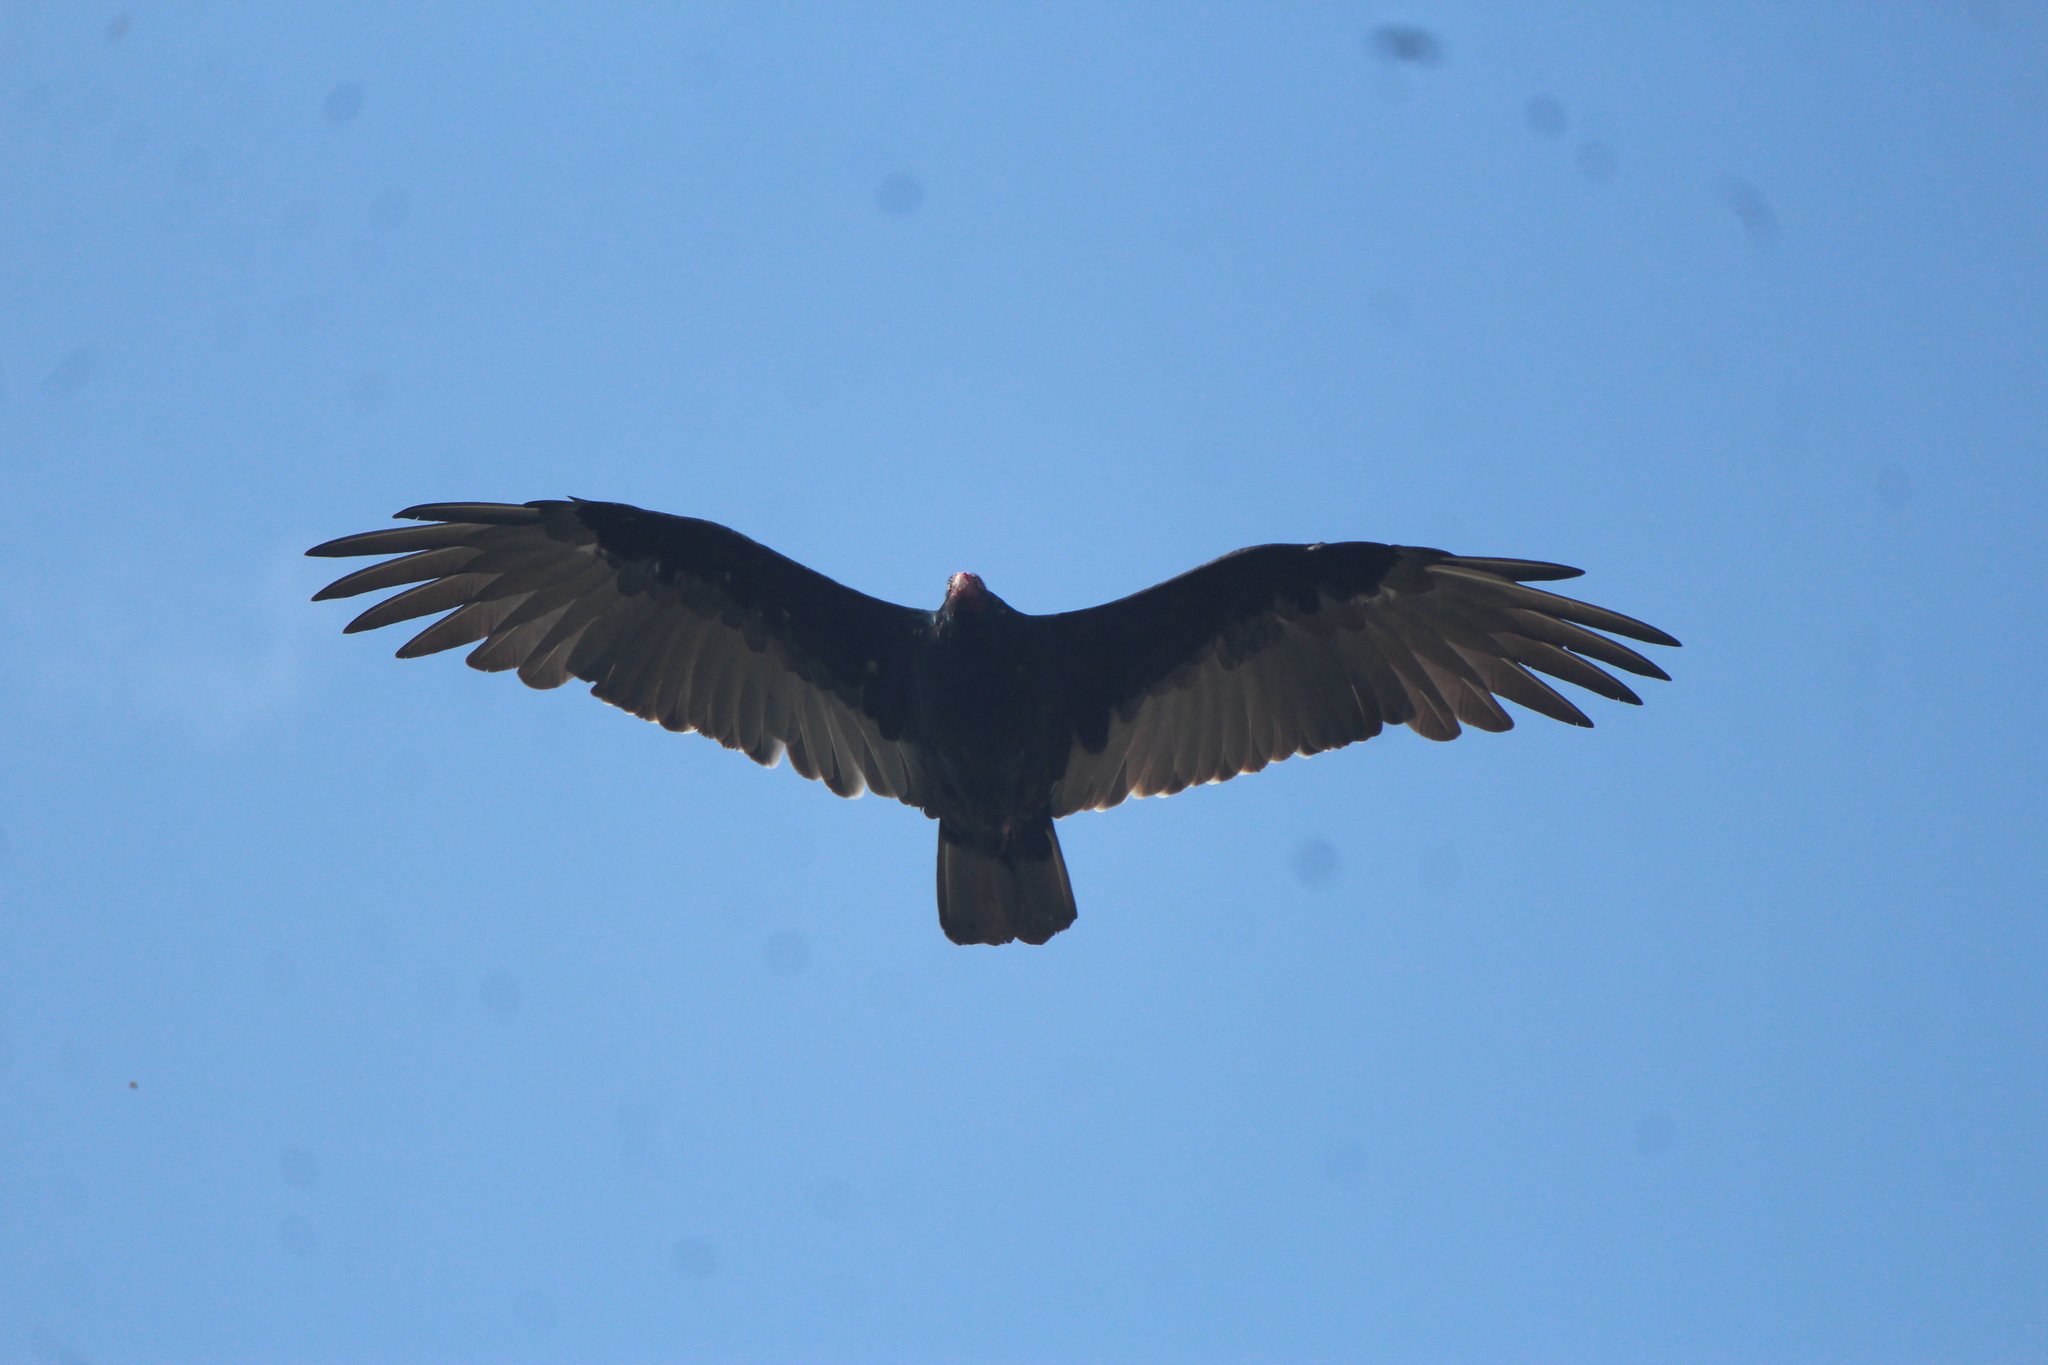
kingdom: Animalia
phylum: Chordata
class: Aves
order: Accipitriformes
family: Cathartidae
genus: Cathartes
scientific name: Cathartes aura
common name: Turkey vulture
